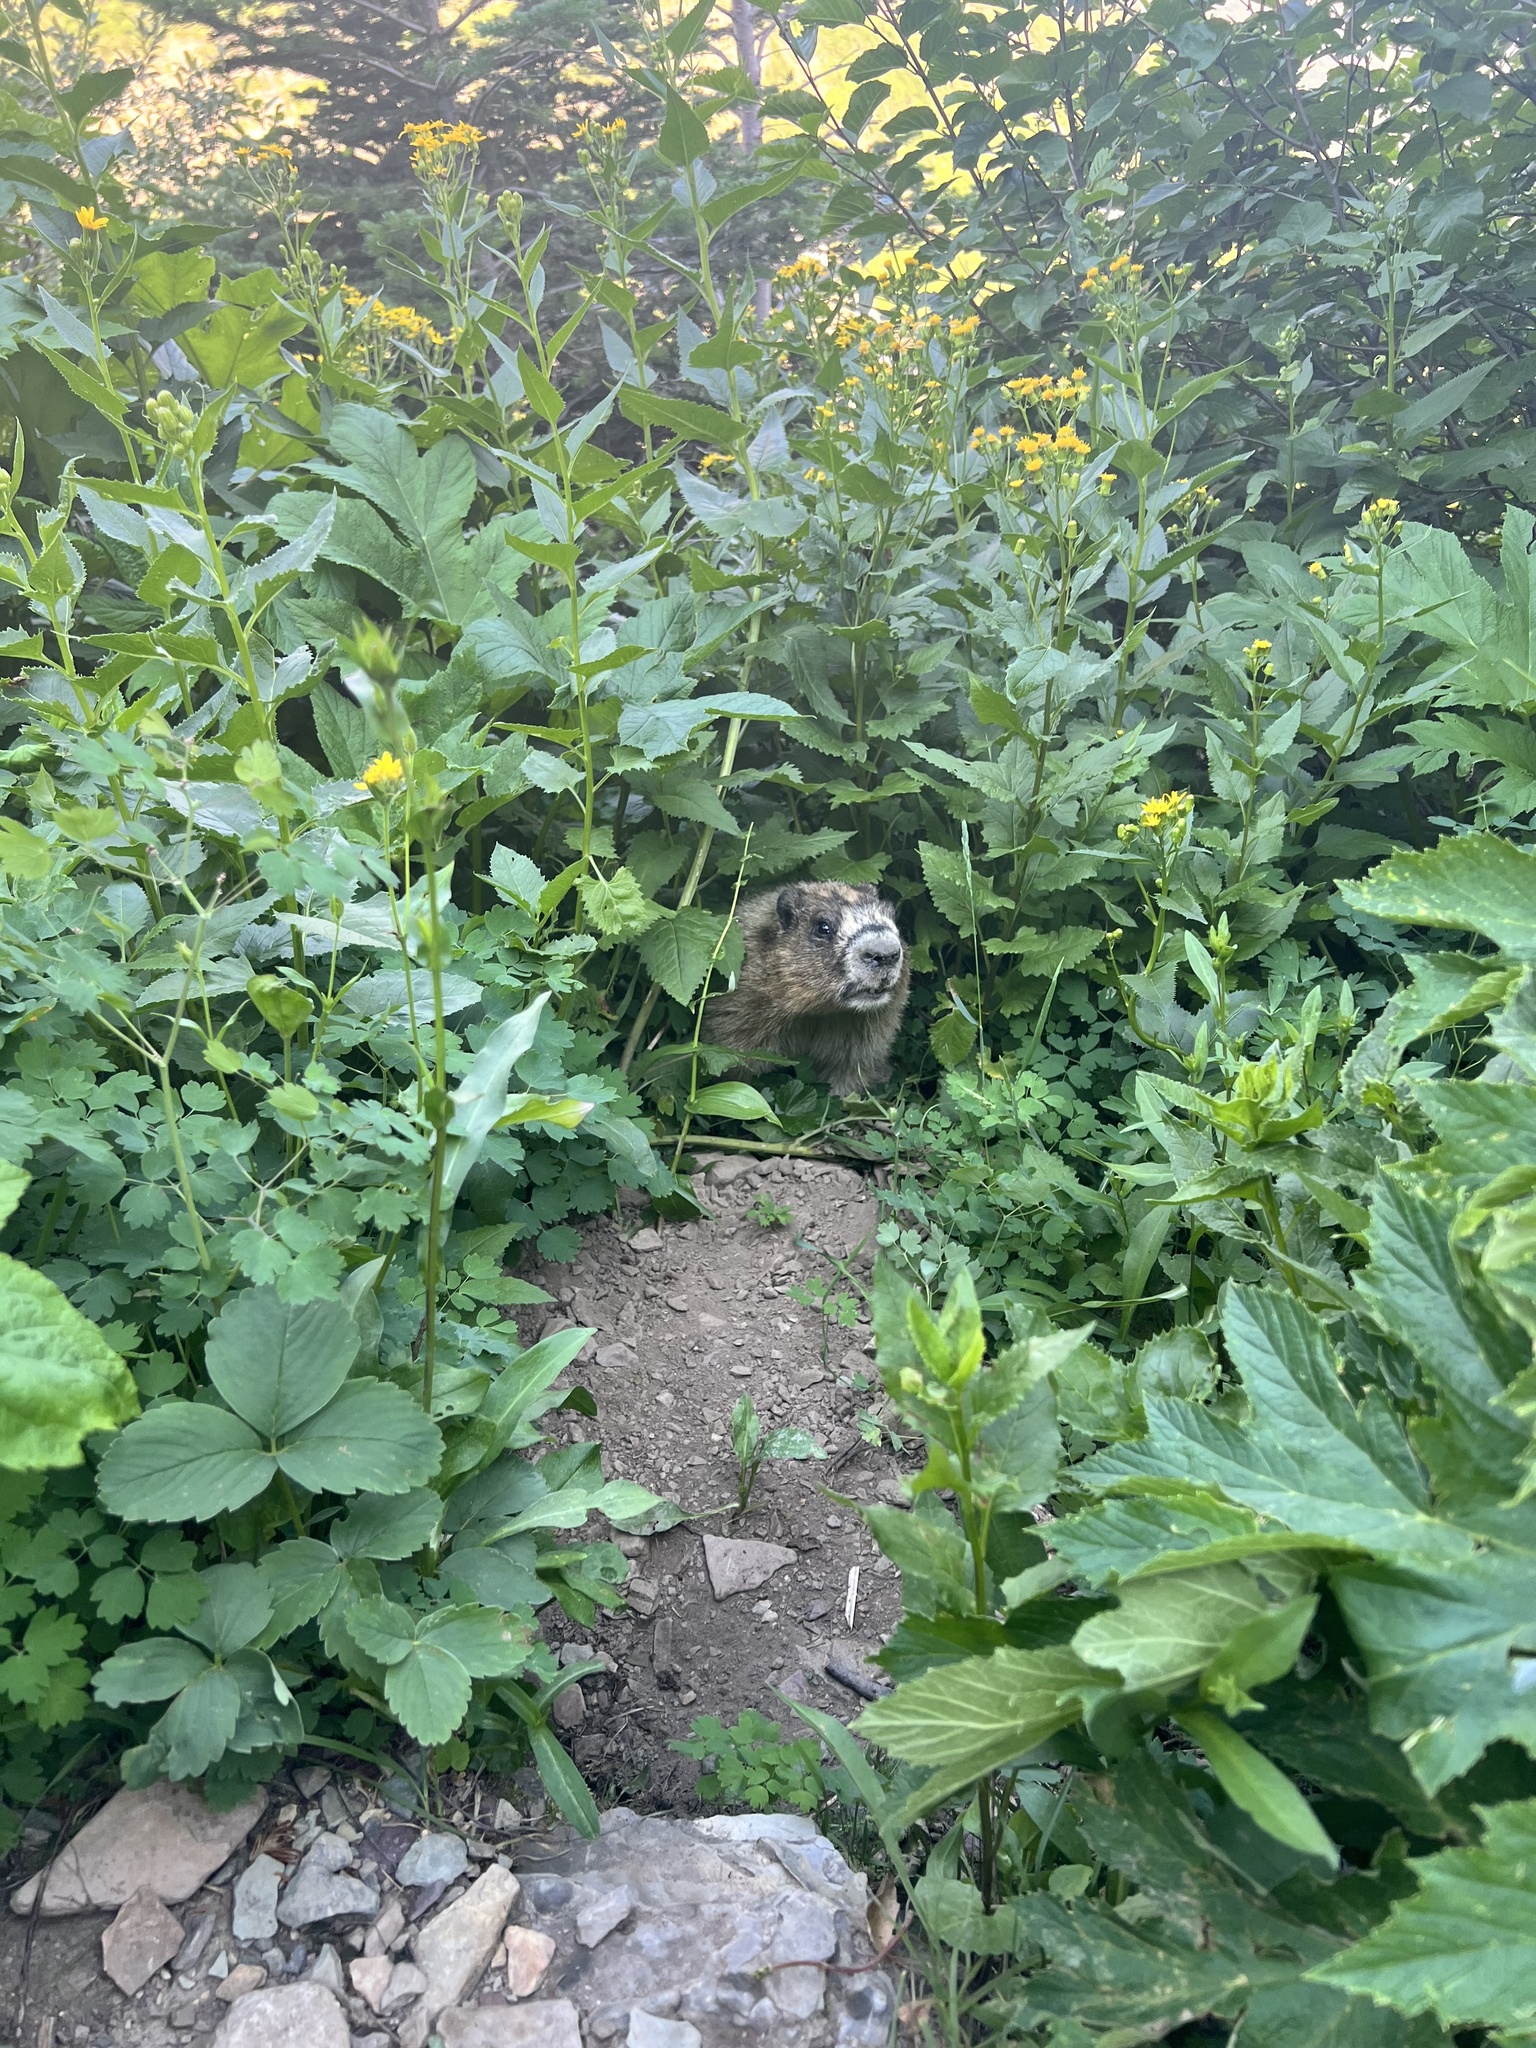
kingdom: Animalia
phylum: Chordata
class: Mammalia
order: Rodentia
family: Sciuridae
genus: Marmota
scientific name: Marmota caligata
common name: Hoary marmot
